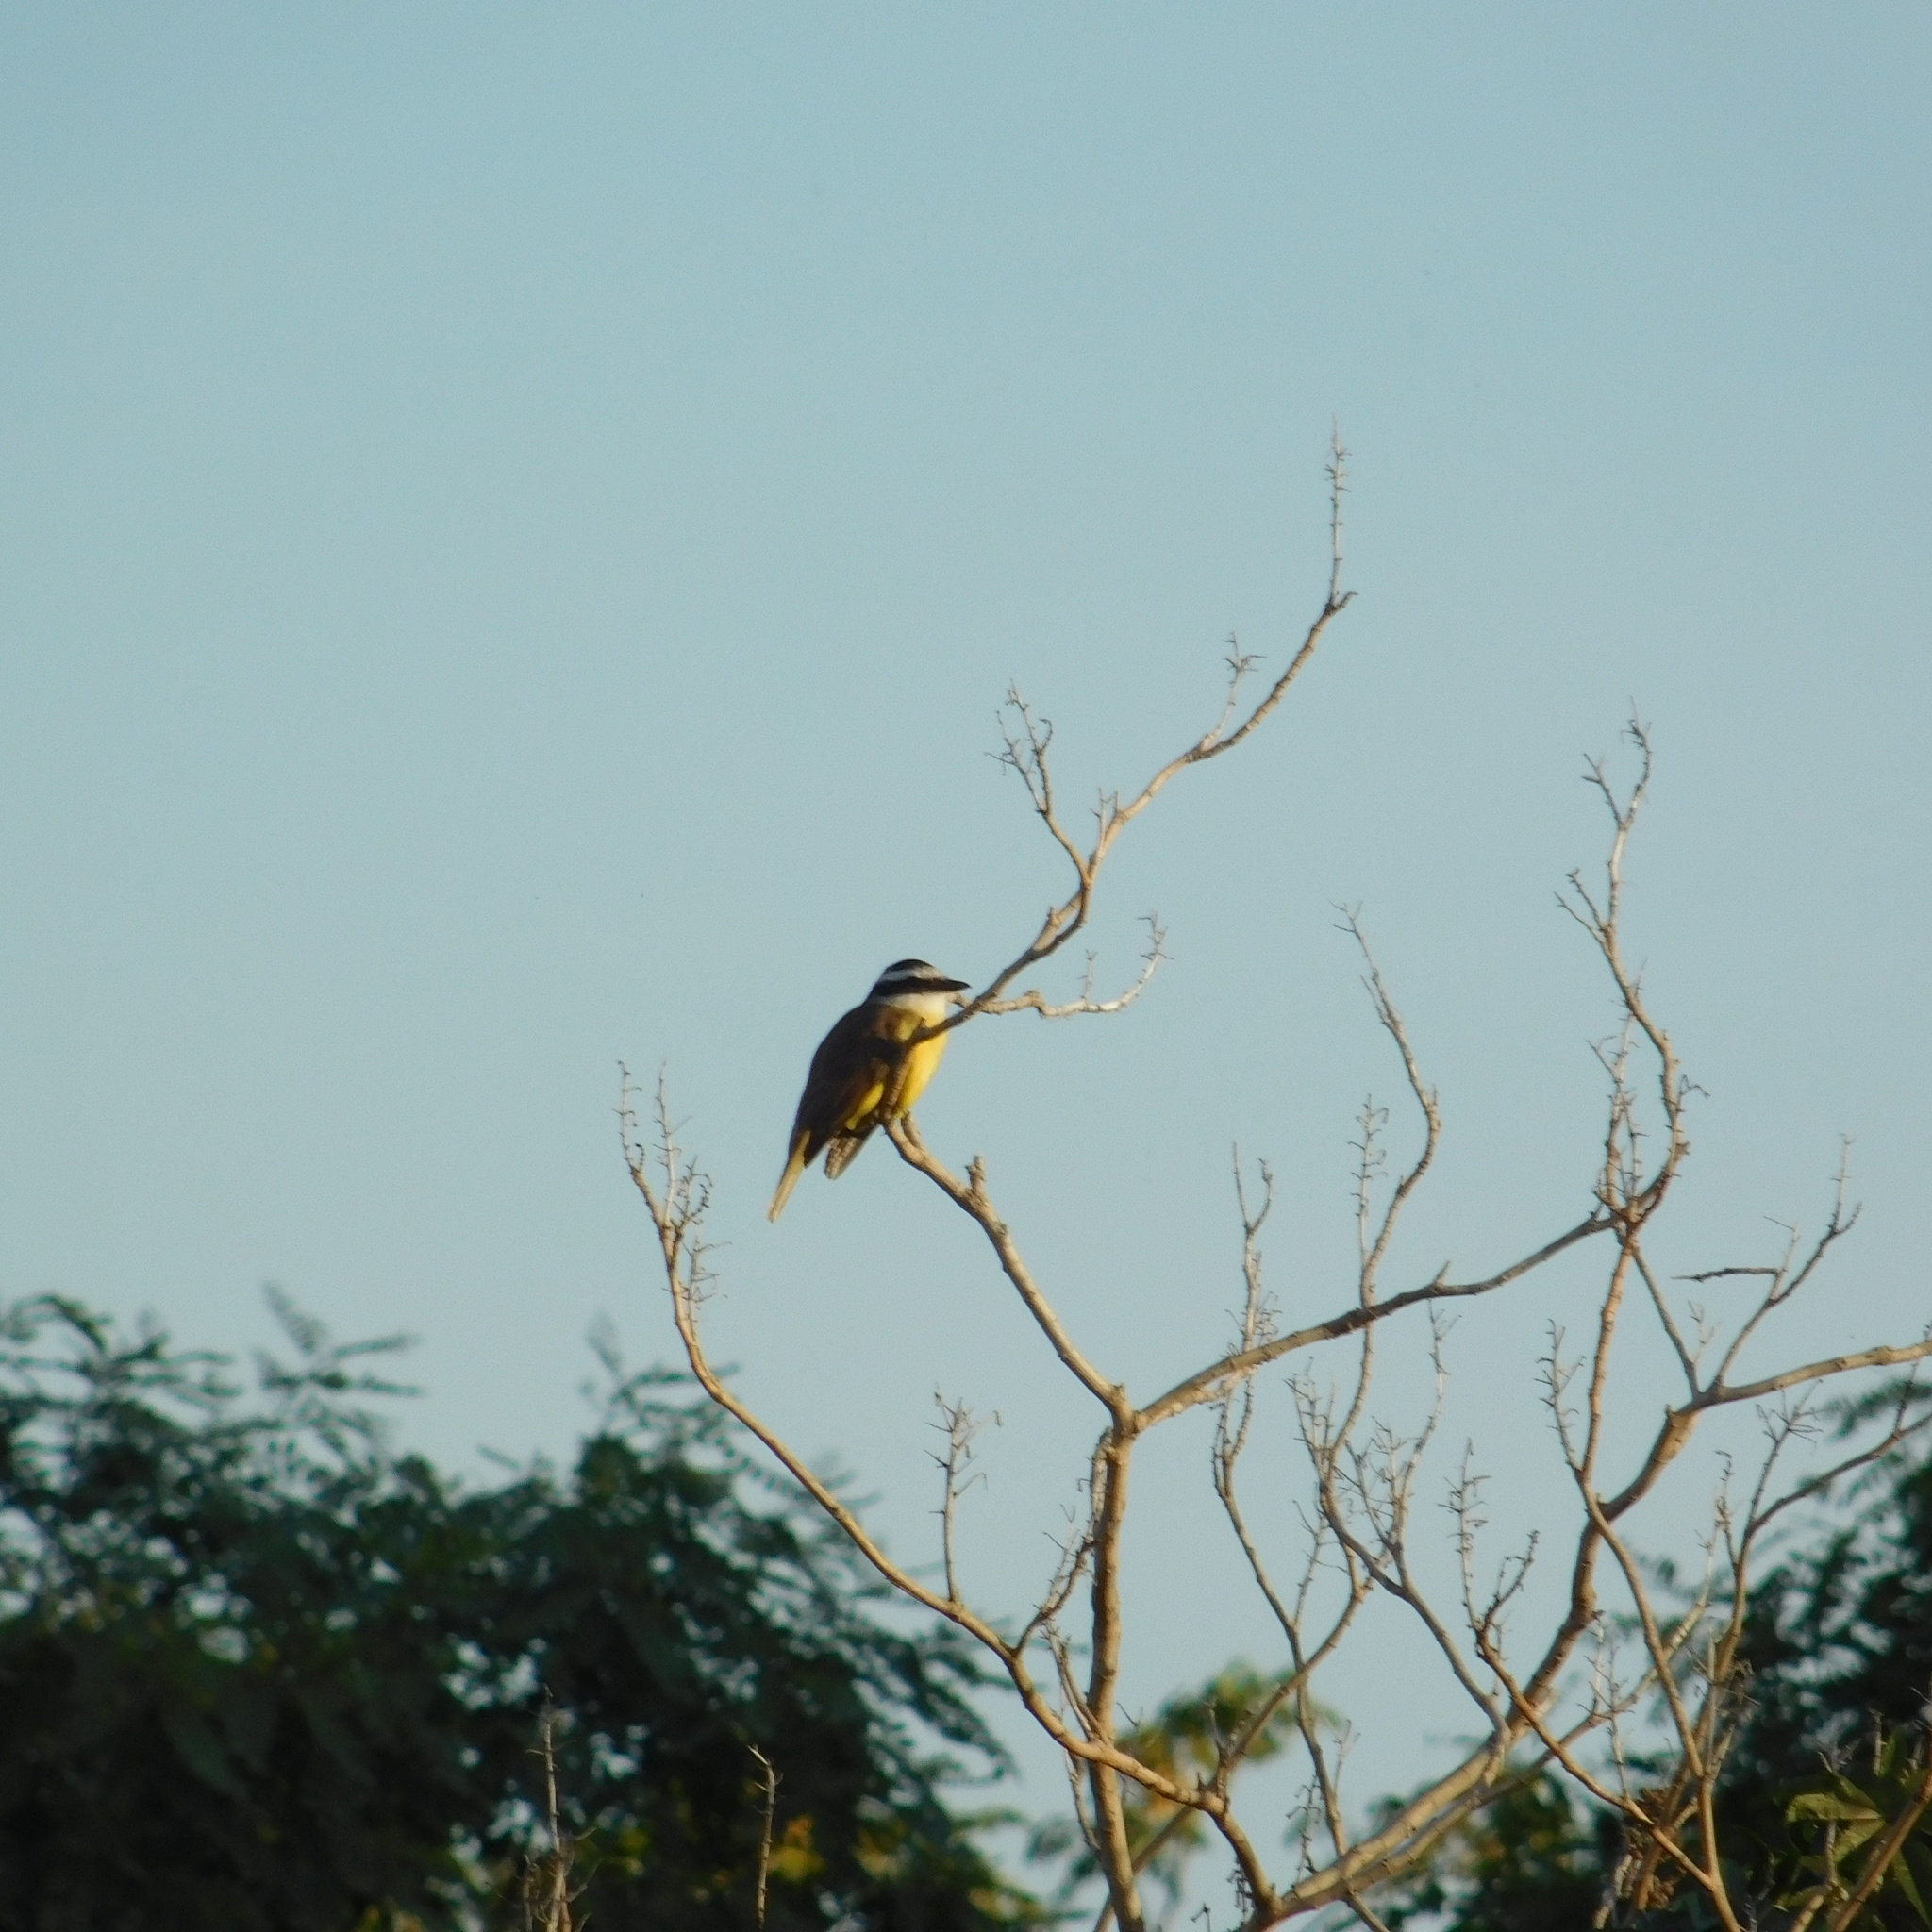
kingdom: Animalia
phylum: Chordata
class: Aves
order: Passeriformes
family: Tyrannidae
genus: Pitangus
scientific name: Pitangus sulphuratus
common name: Great kiskadee
